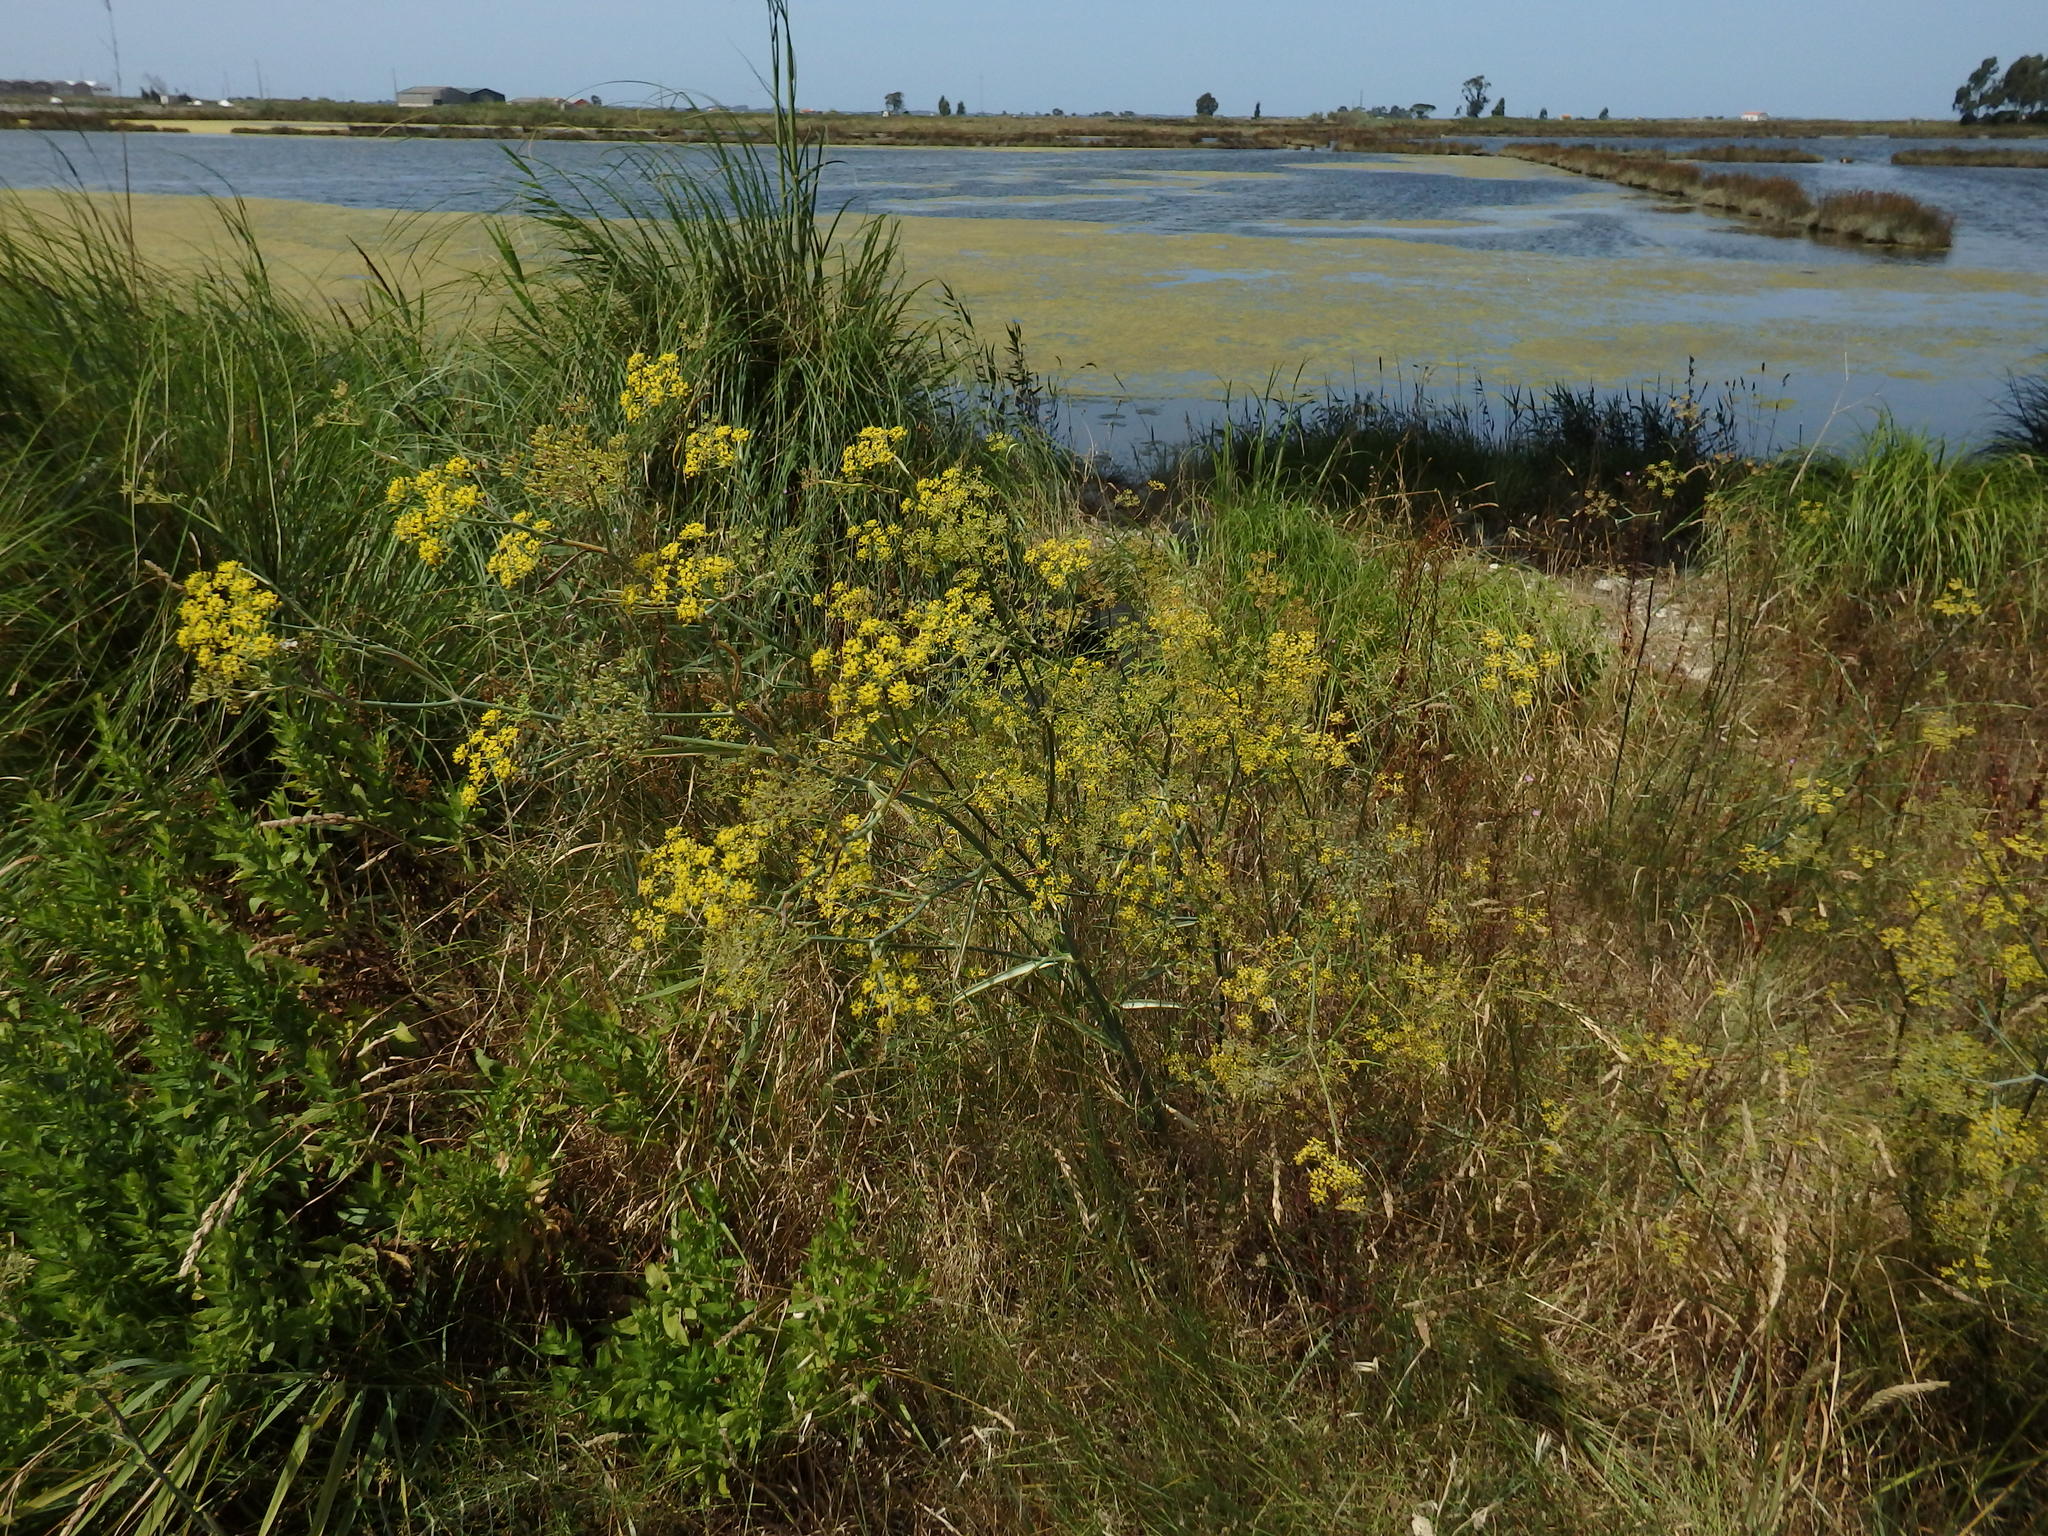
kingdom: Plantae
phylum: Tracheophyta
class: Magnoliopsida
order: Apiales
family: Apiaceae
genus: Foeniculum
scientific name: Foeniculum vulgare
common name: Fennel
